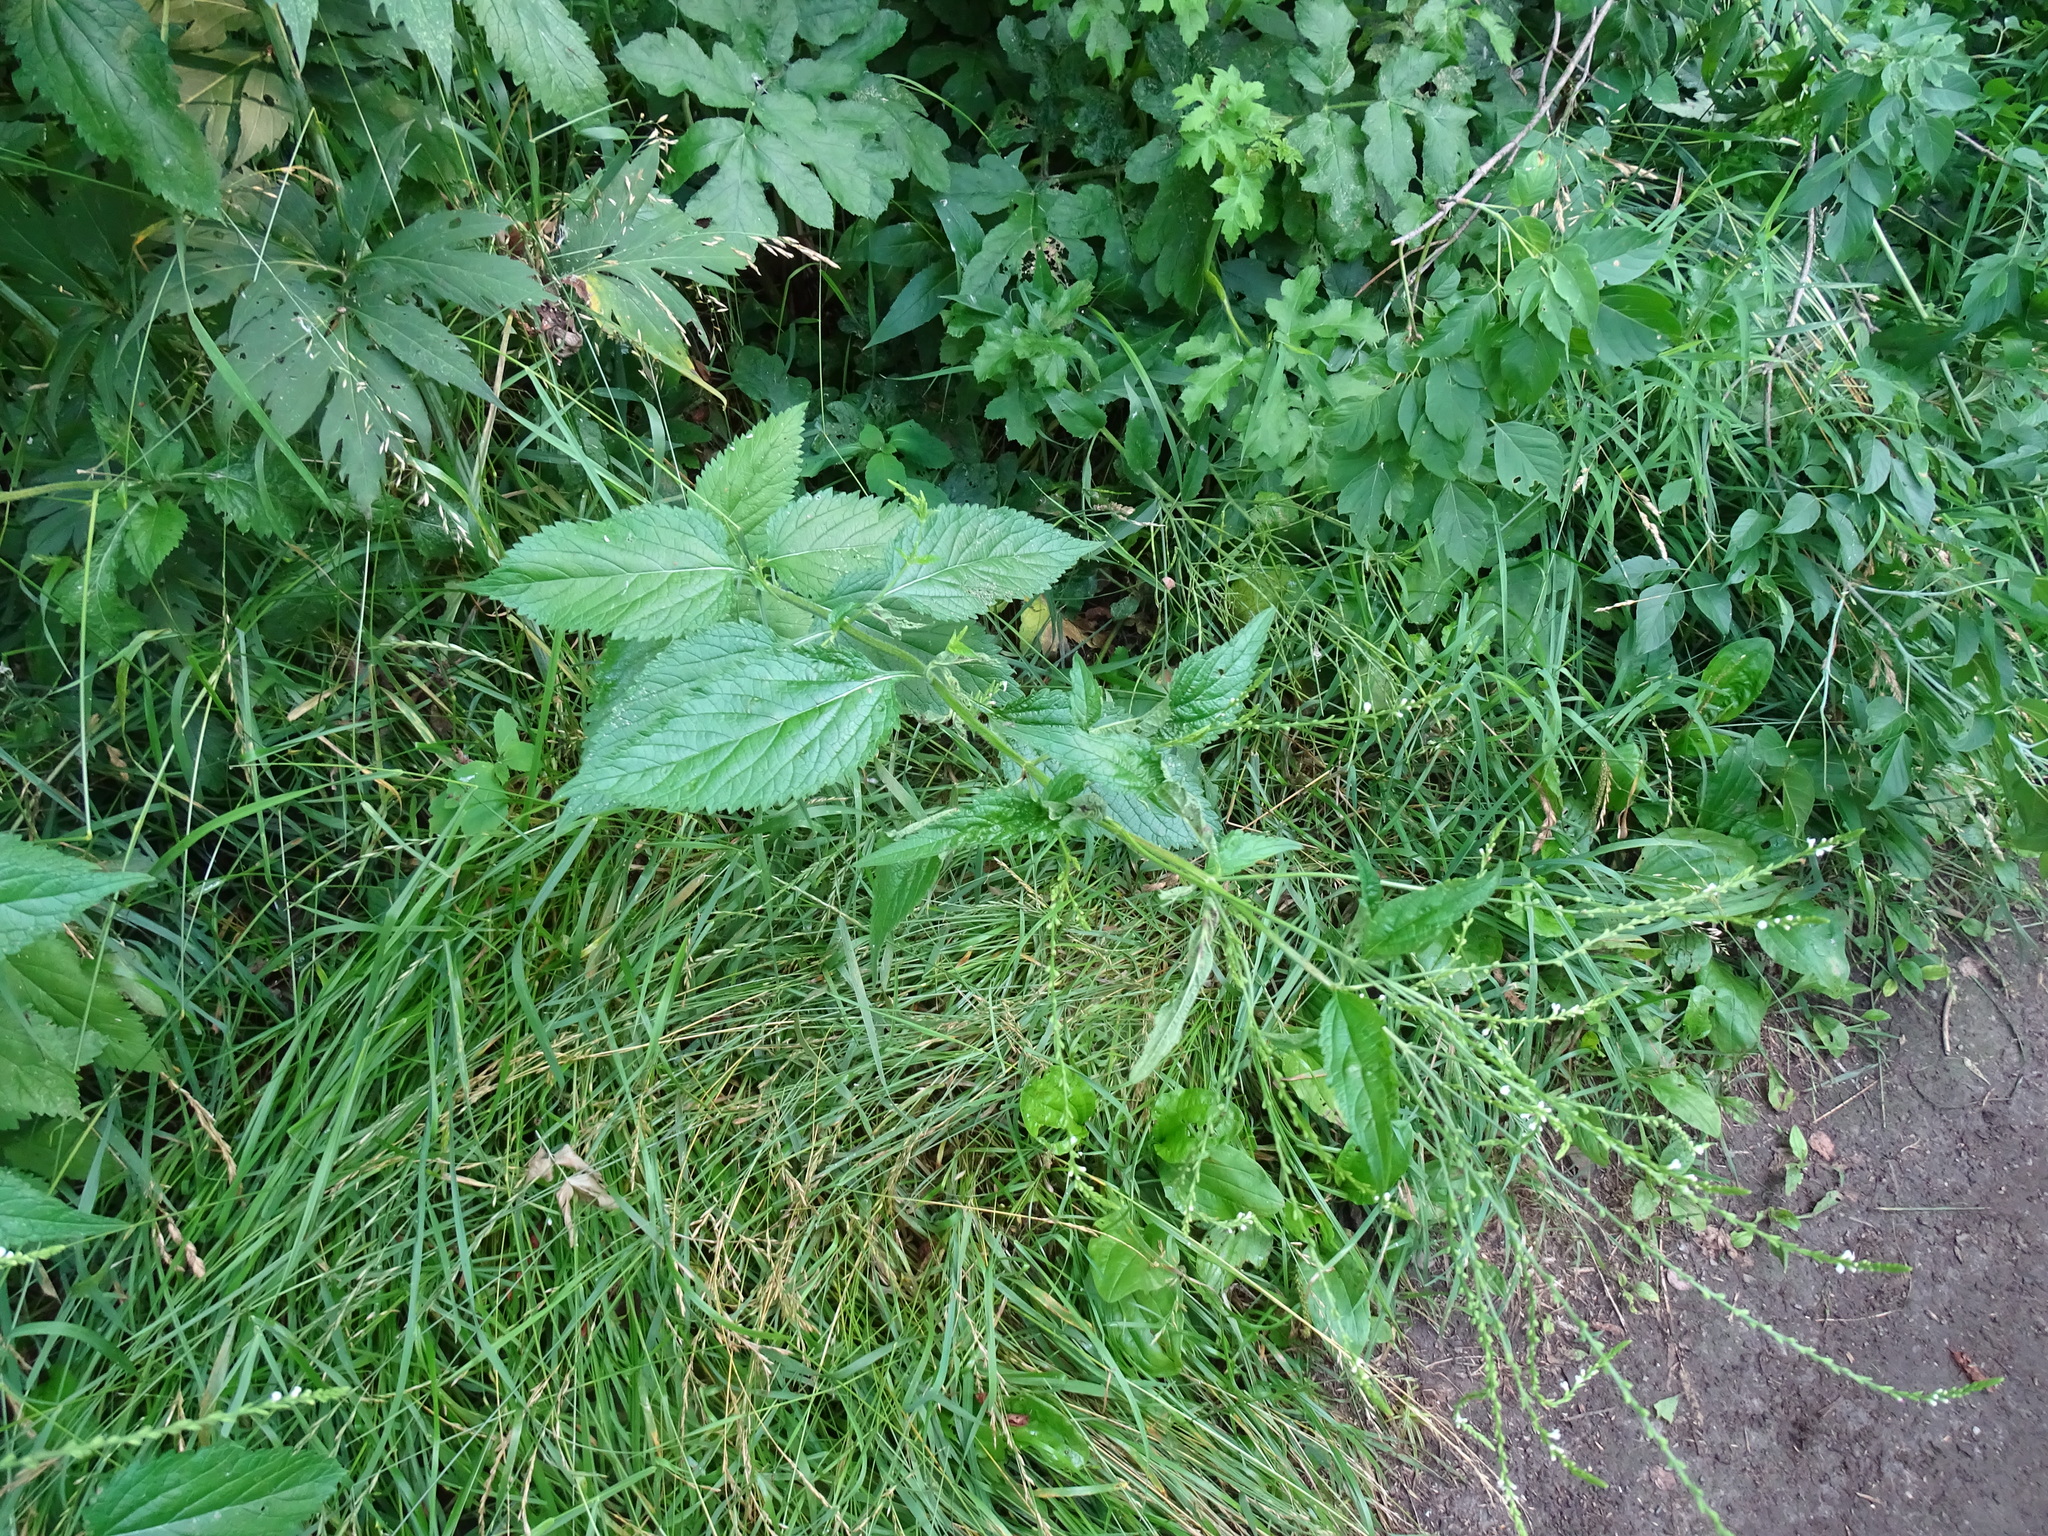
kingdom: Plantae
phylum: Tracheophyta
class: Magnoliopsida
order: Lamiales
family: Verbenaceae
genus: Verbena
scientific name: Verbena urticifolia
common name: Nettle-leaved vervain
